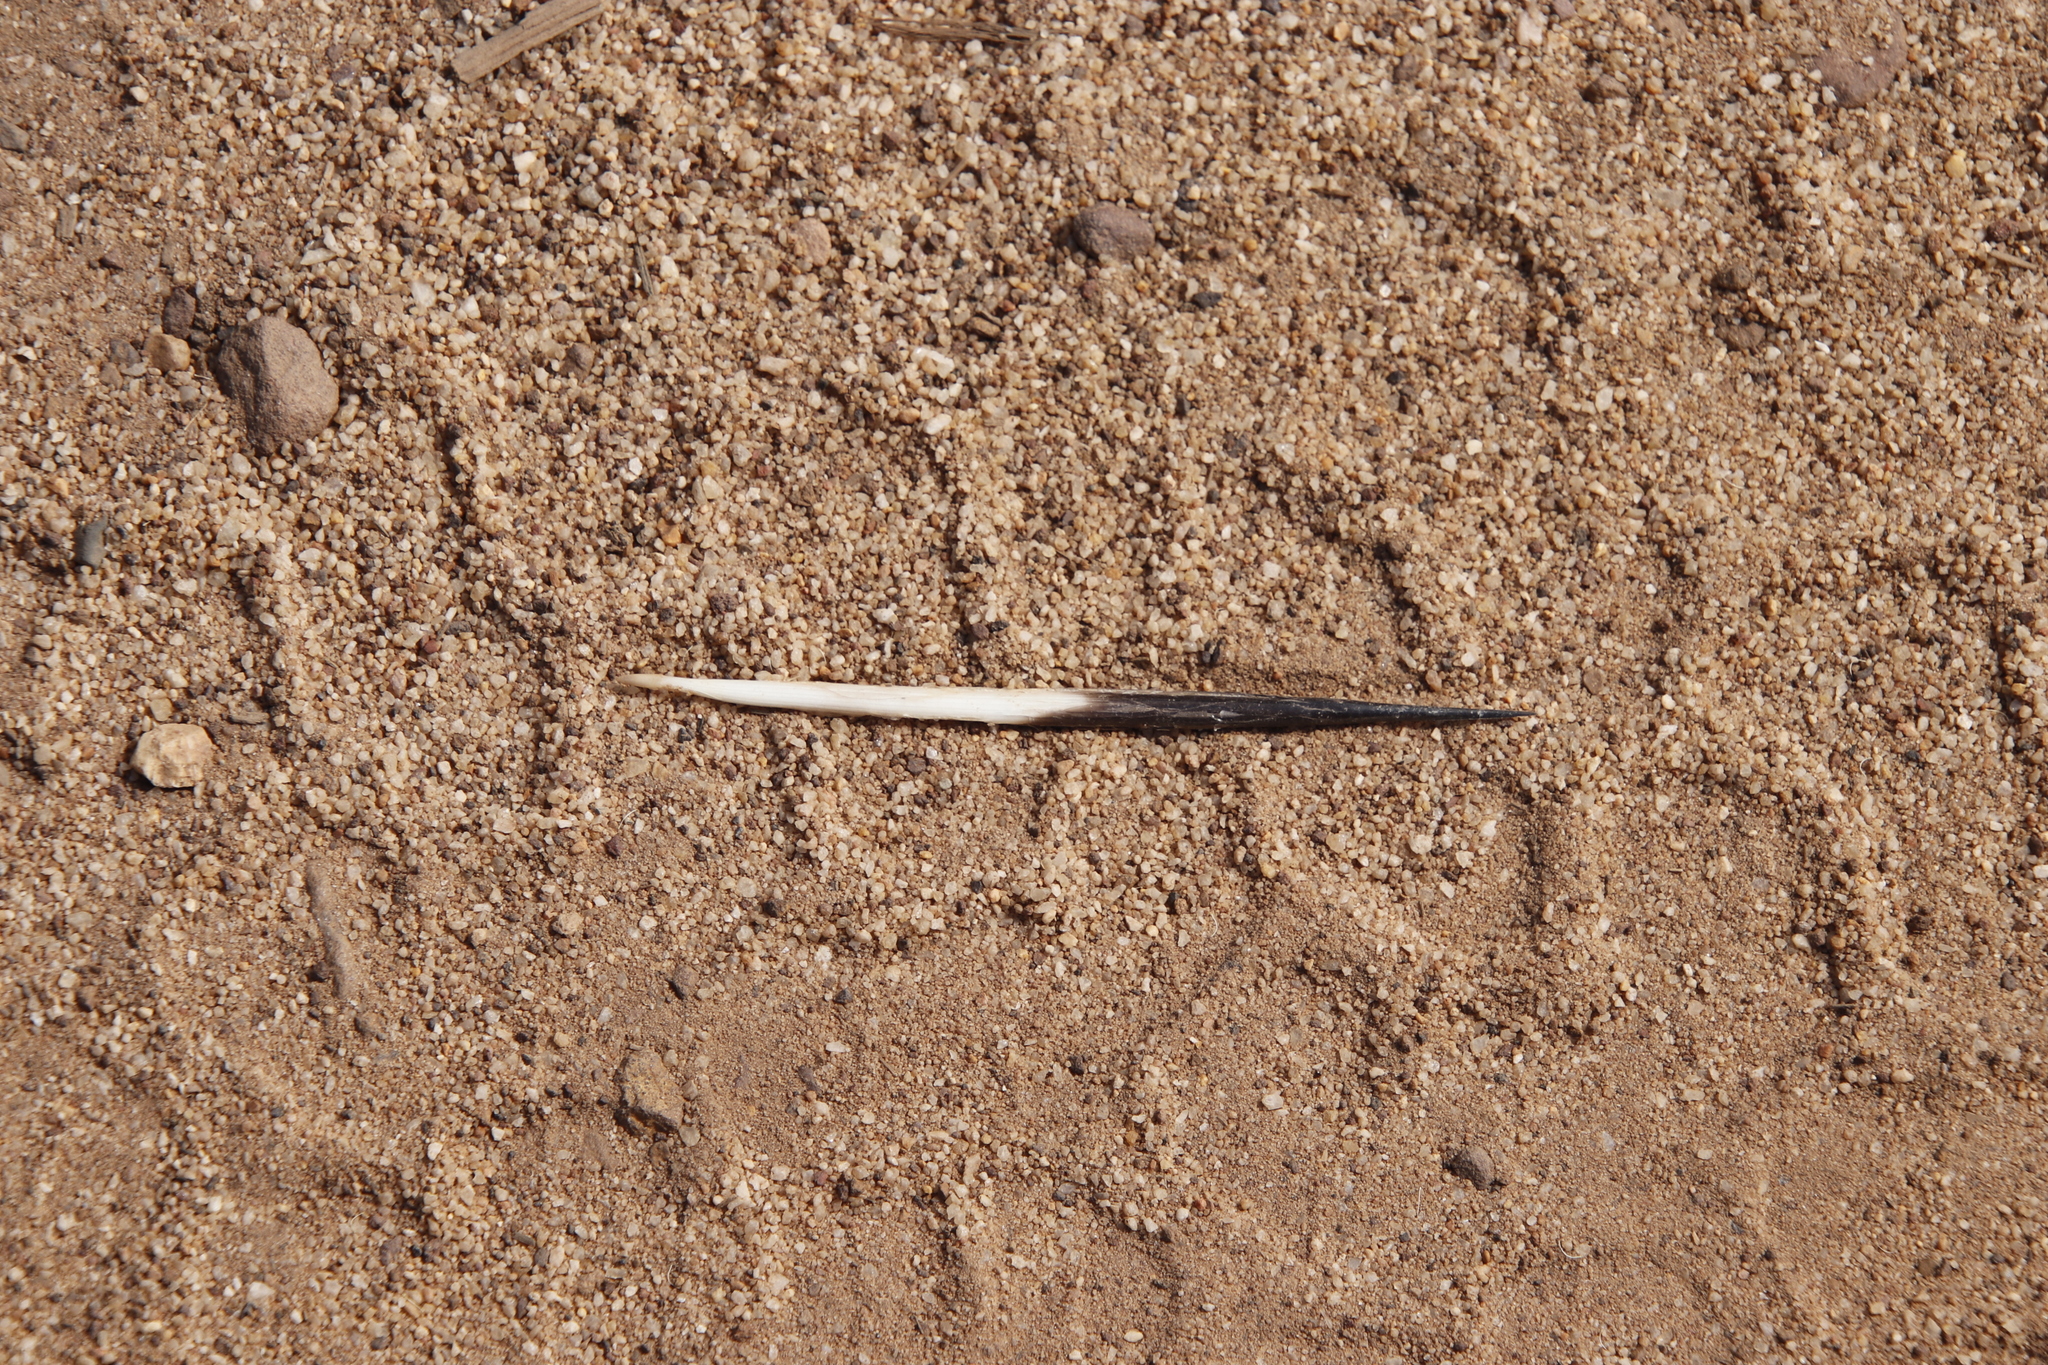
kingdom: Animalia
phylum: Chordata
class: Mammalia
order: Rodentia
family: Hystricidae
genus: Hystrix
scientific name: Hystrix africaeaustralis
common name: Cape porcupine
